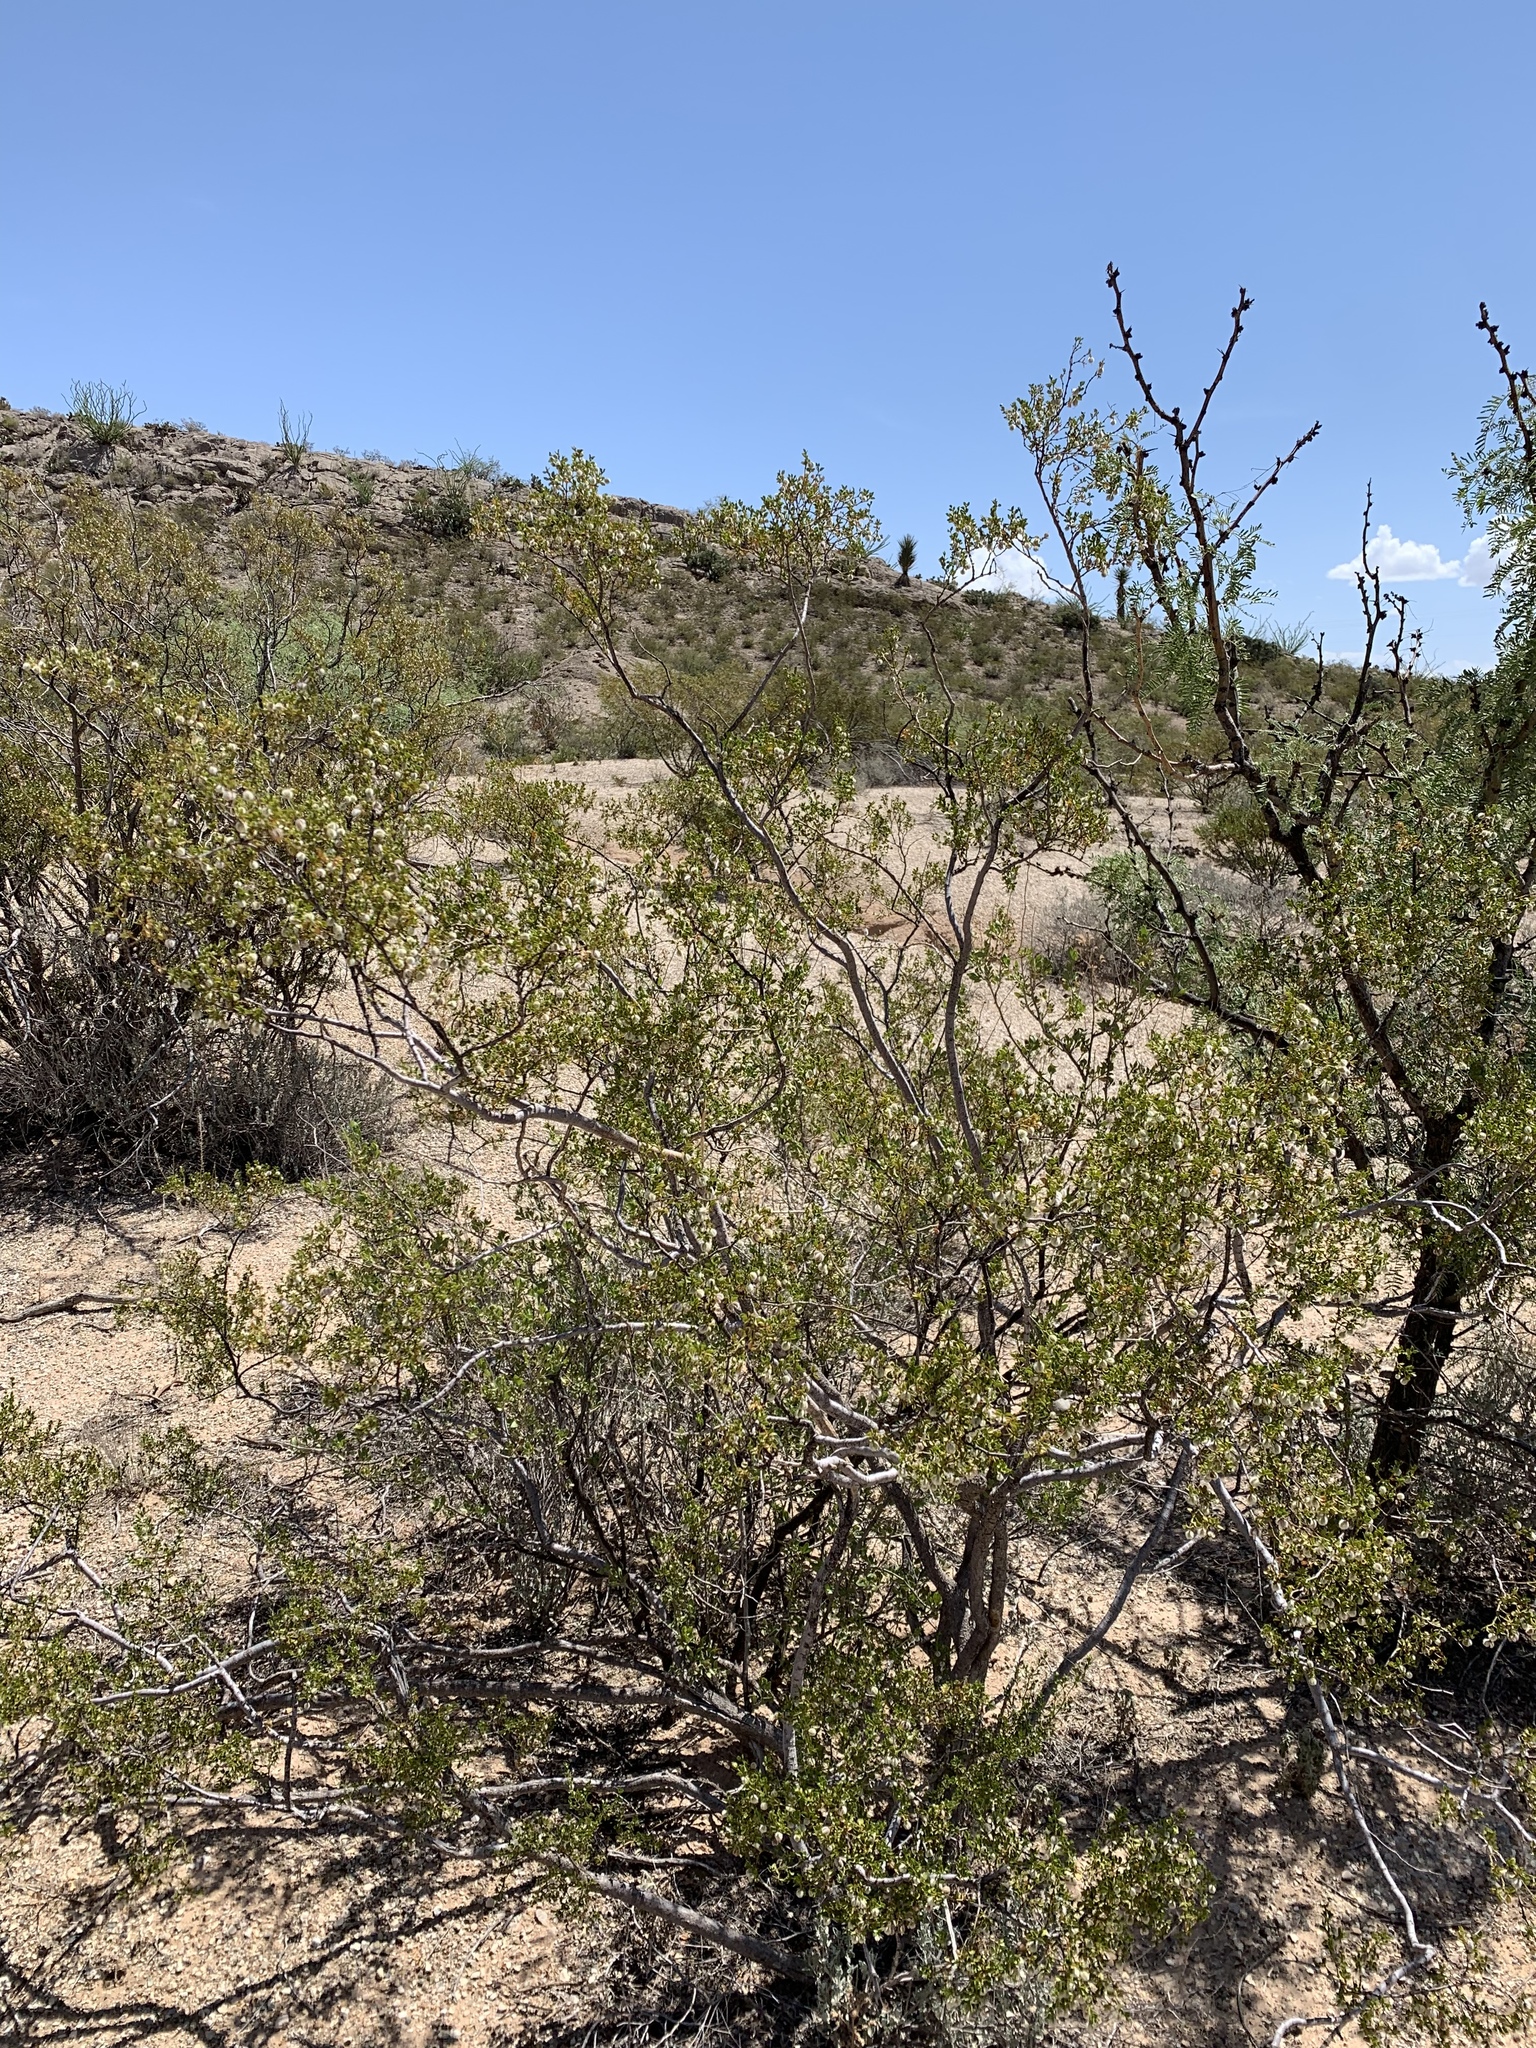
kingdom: Plantae
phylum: Tracheophyta
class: Magnoliopsida
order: Zygophyllales
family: Zygophyllaceae
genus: Larrea
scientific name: Larrea tridentata
